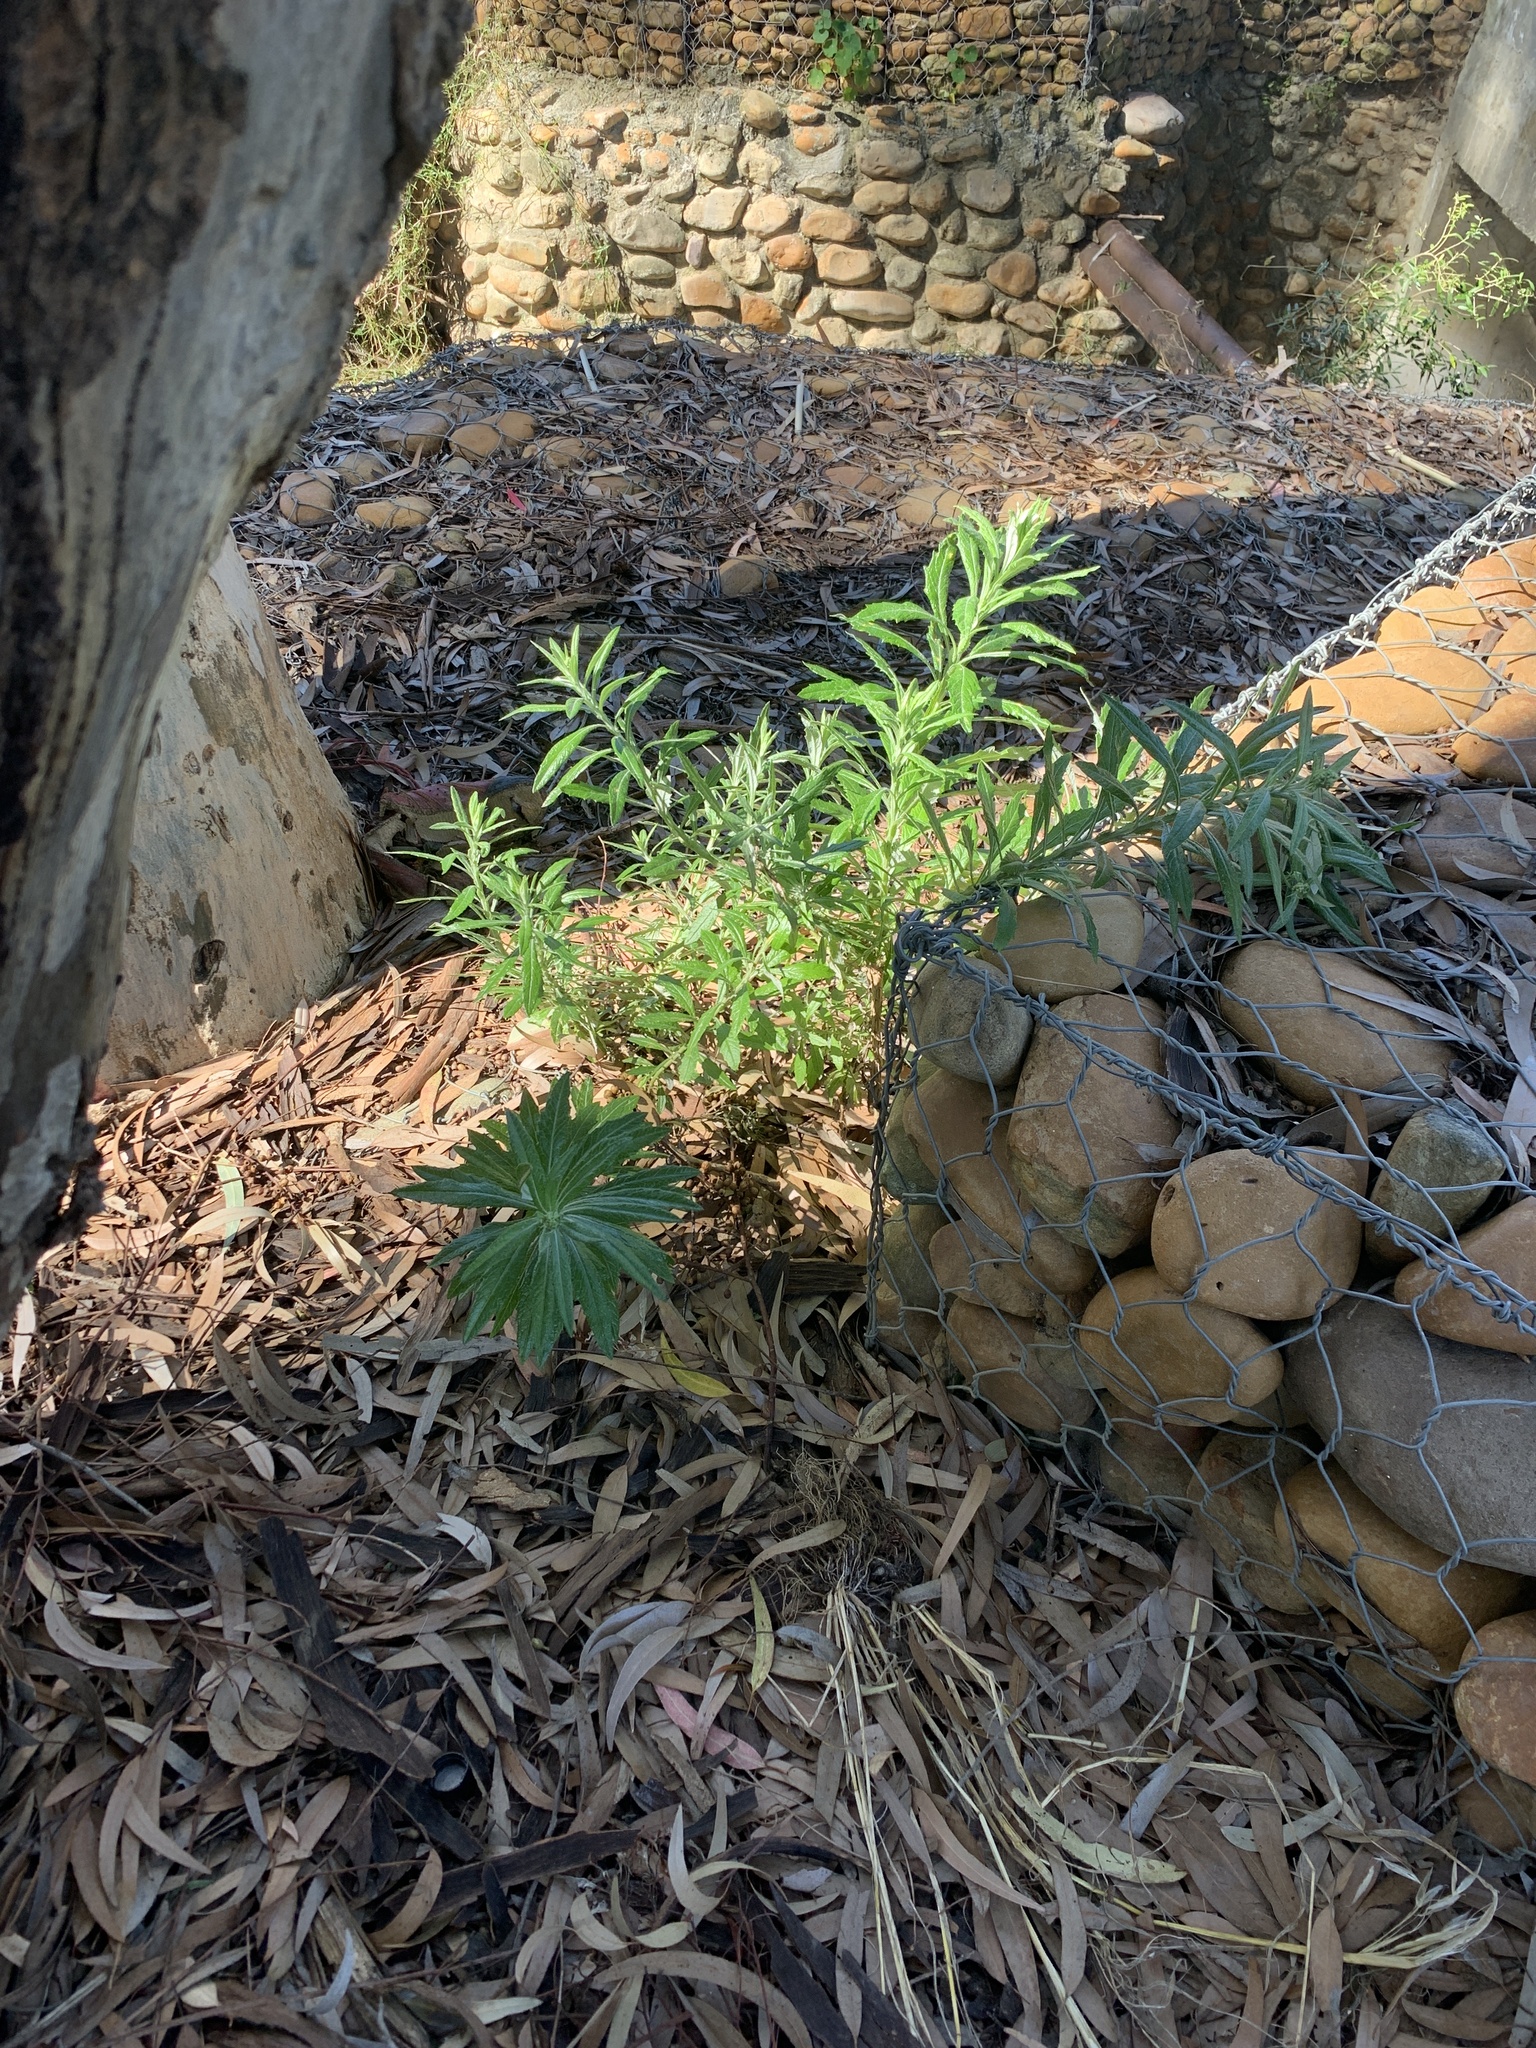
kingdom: Plantae
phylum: Tracheophyta
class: Magnoliopsida
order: Asterales
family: Asteraceae
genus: Senecio
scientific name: Senecio pterophorus
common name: Shoddy ragwort
